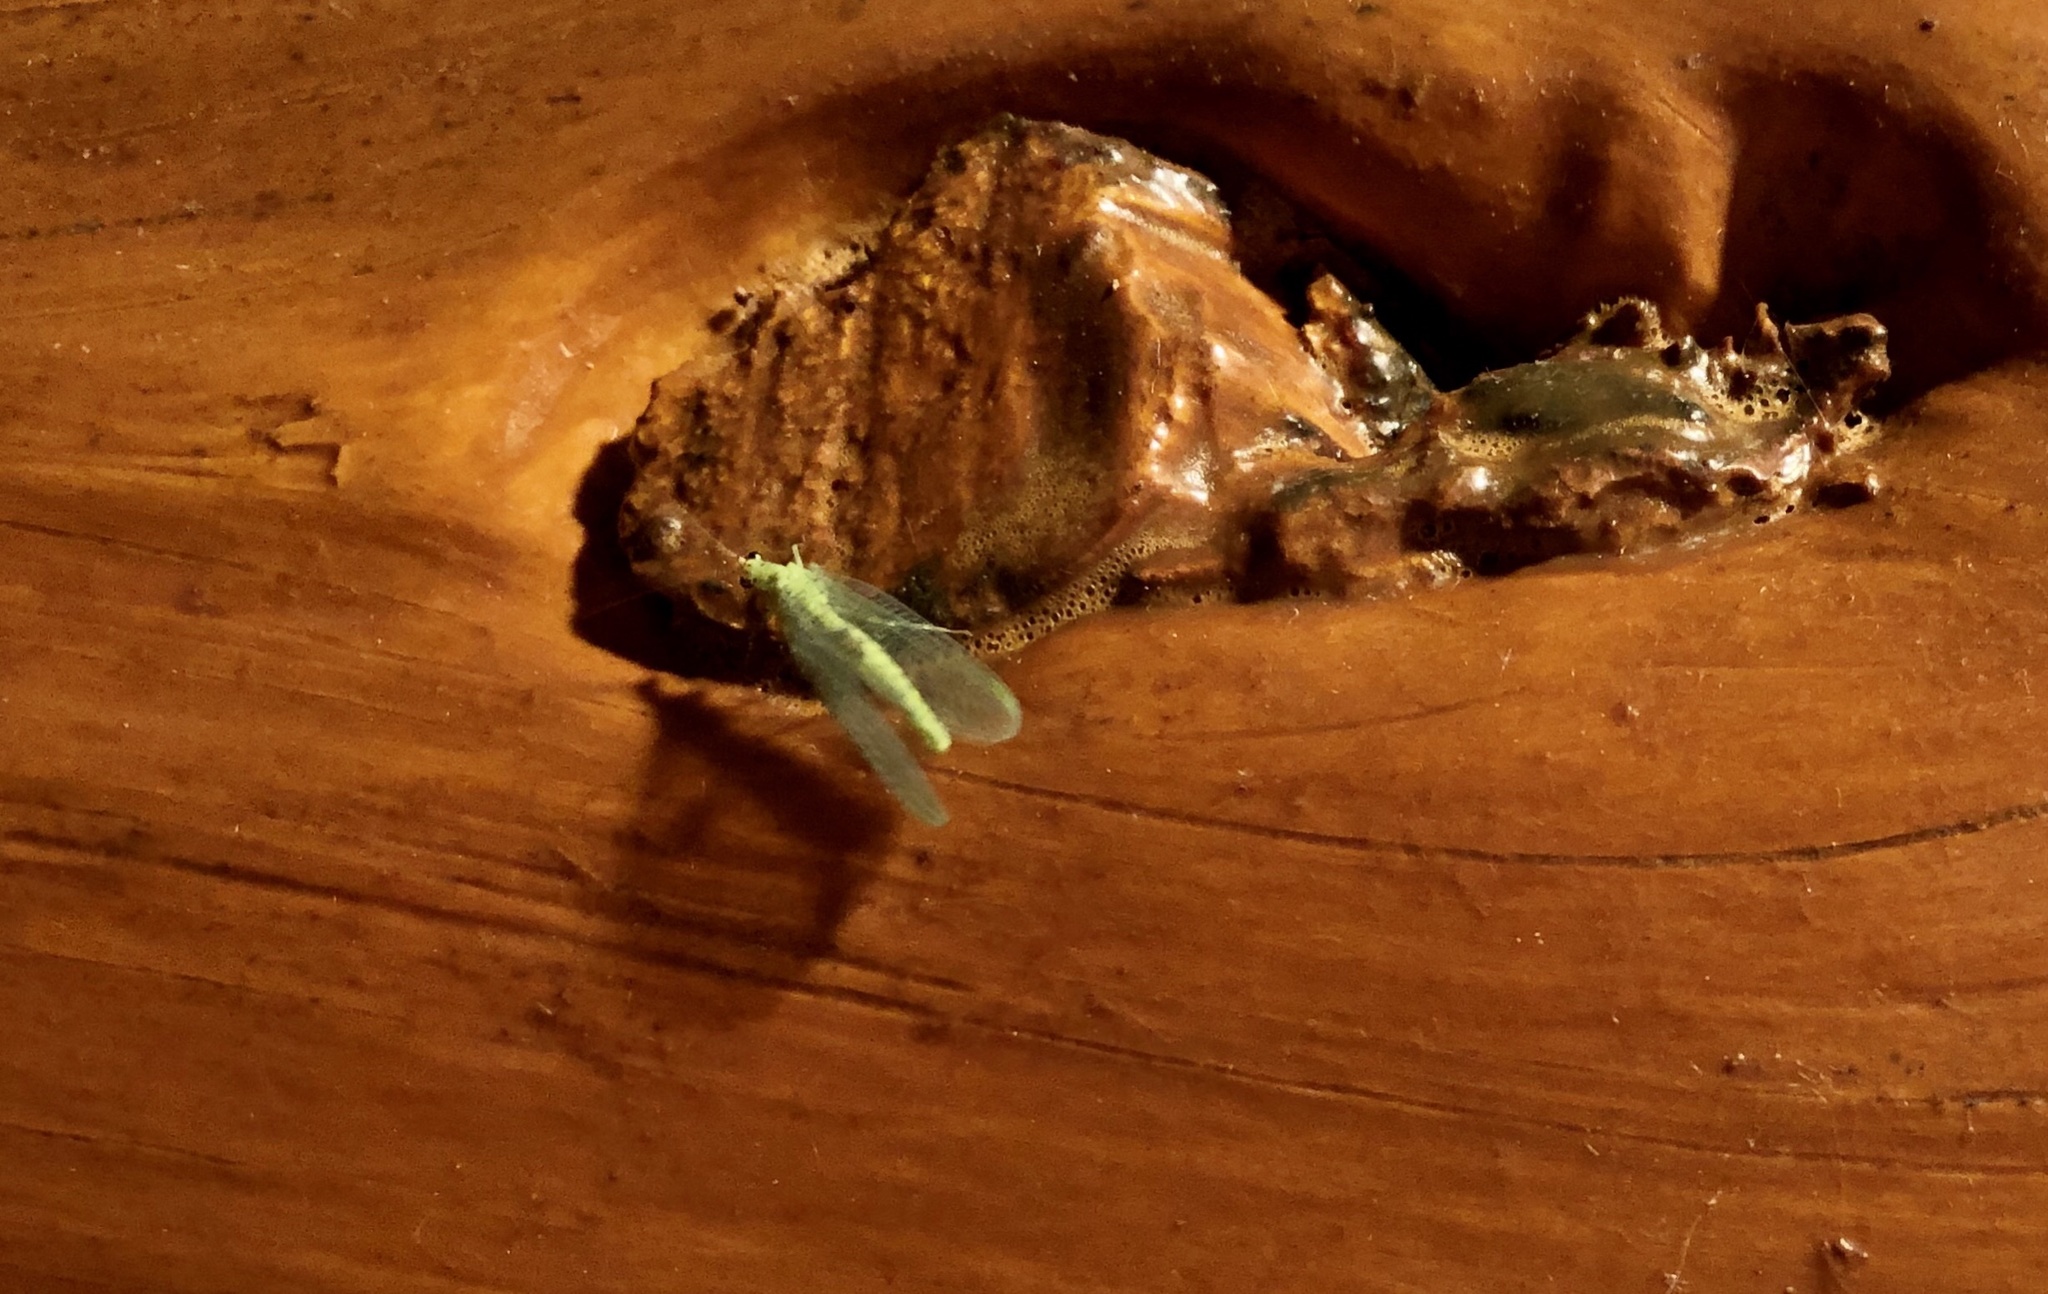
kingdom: Animalia
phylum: Arthropoda
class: Insecta
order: Neuroptera
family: Chrysopidae
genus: Chrysopa
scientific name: Chrysopa oculata
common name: Golden-eyed lacewing
